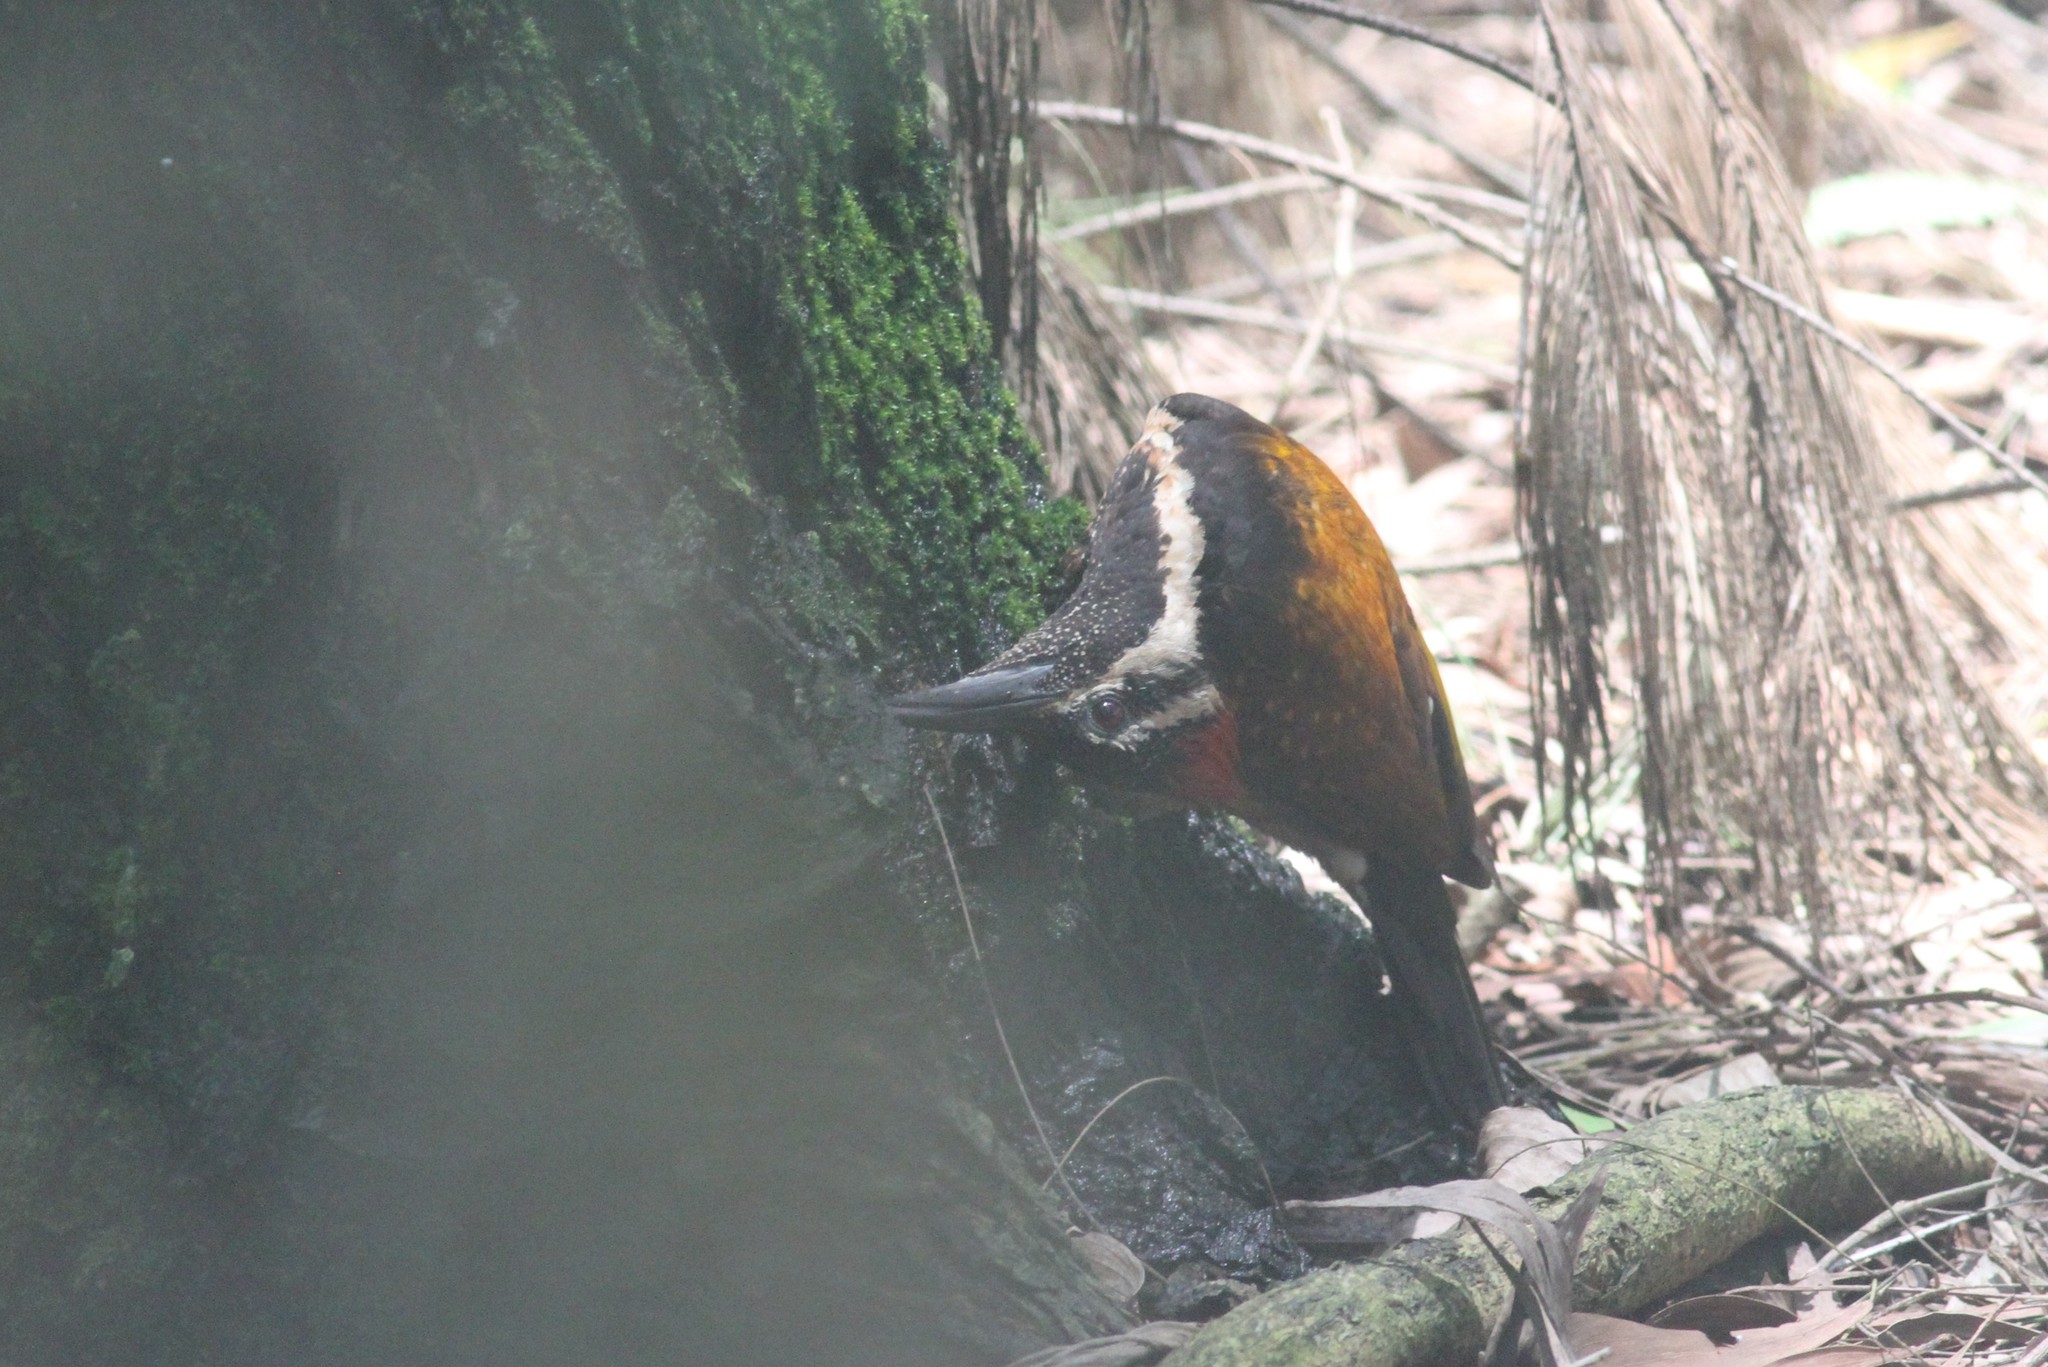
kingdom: Animalia
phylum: Chordata
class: Aves
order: Piciformes
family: Picidae
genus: Dinopium
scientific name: Dinopium benghalense
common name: Black-rumped flameback
